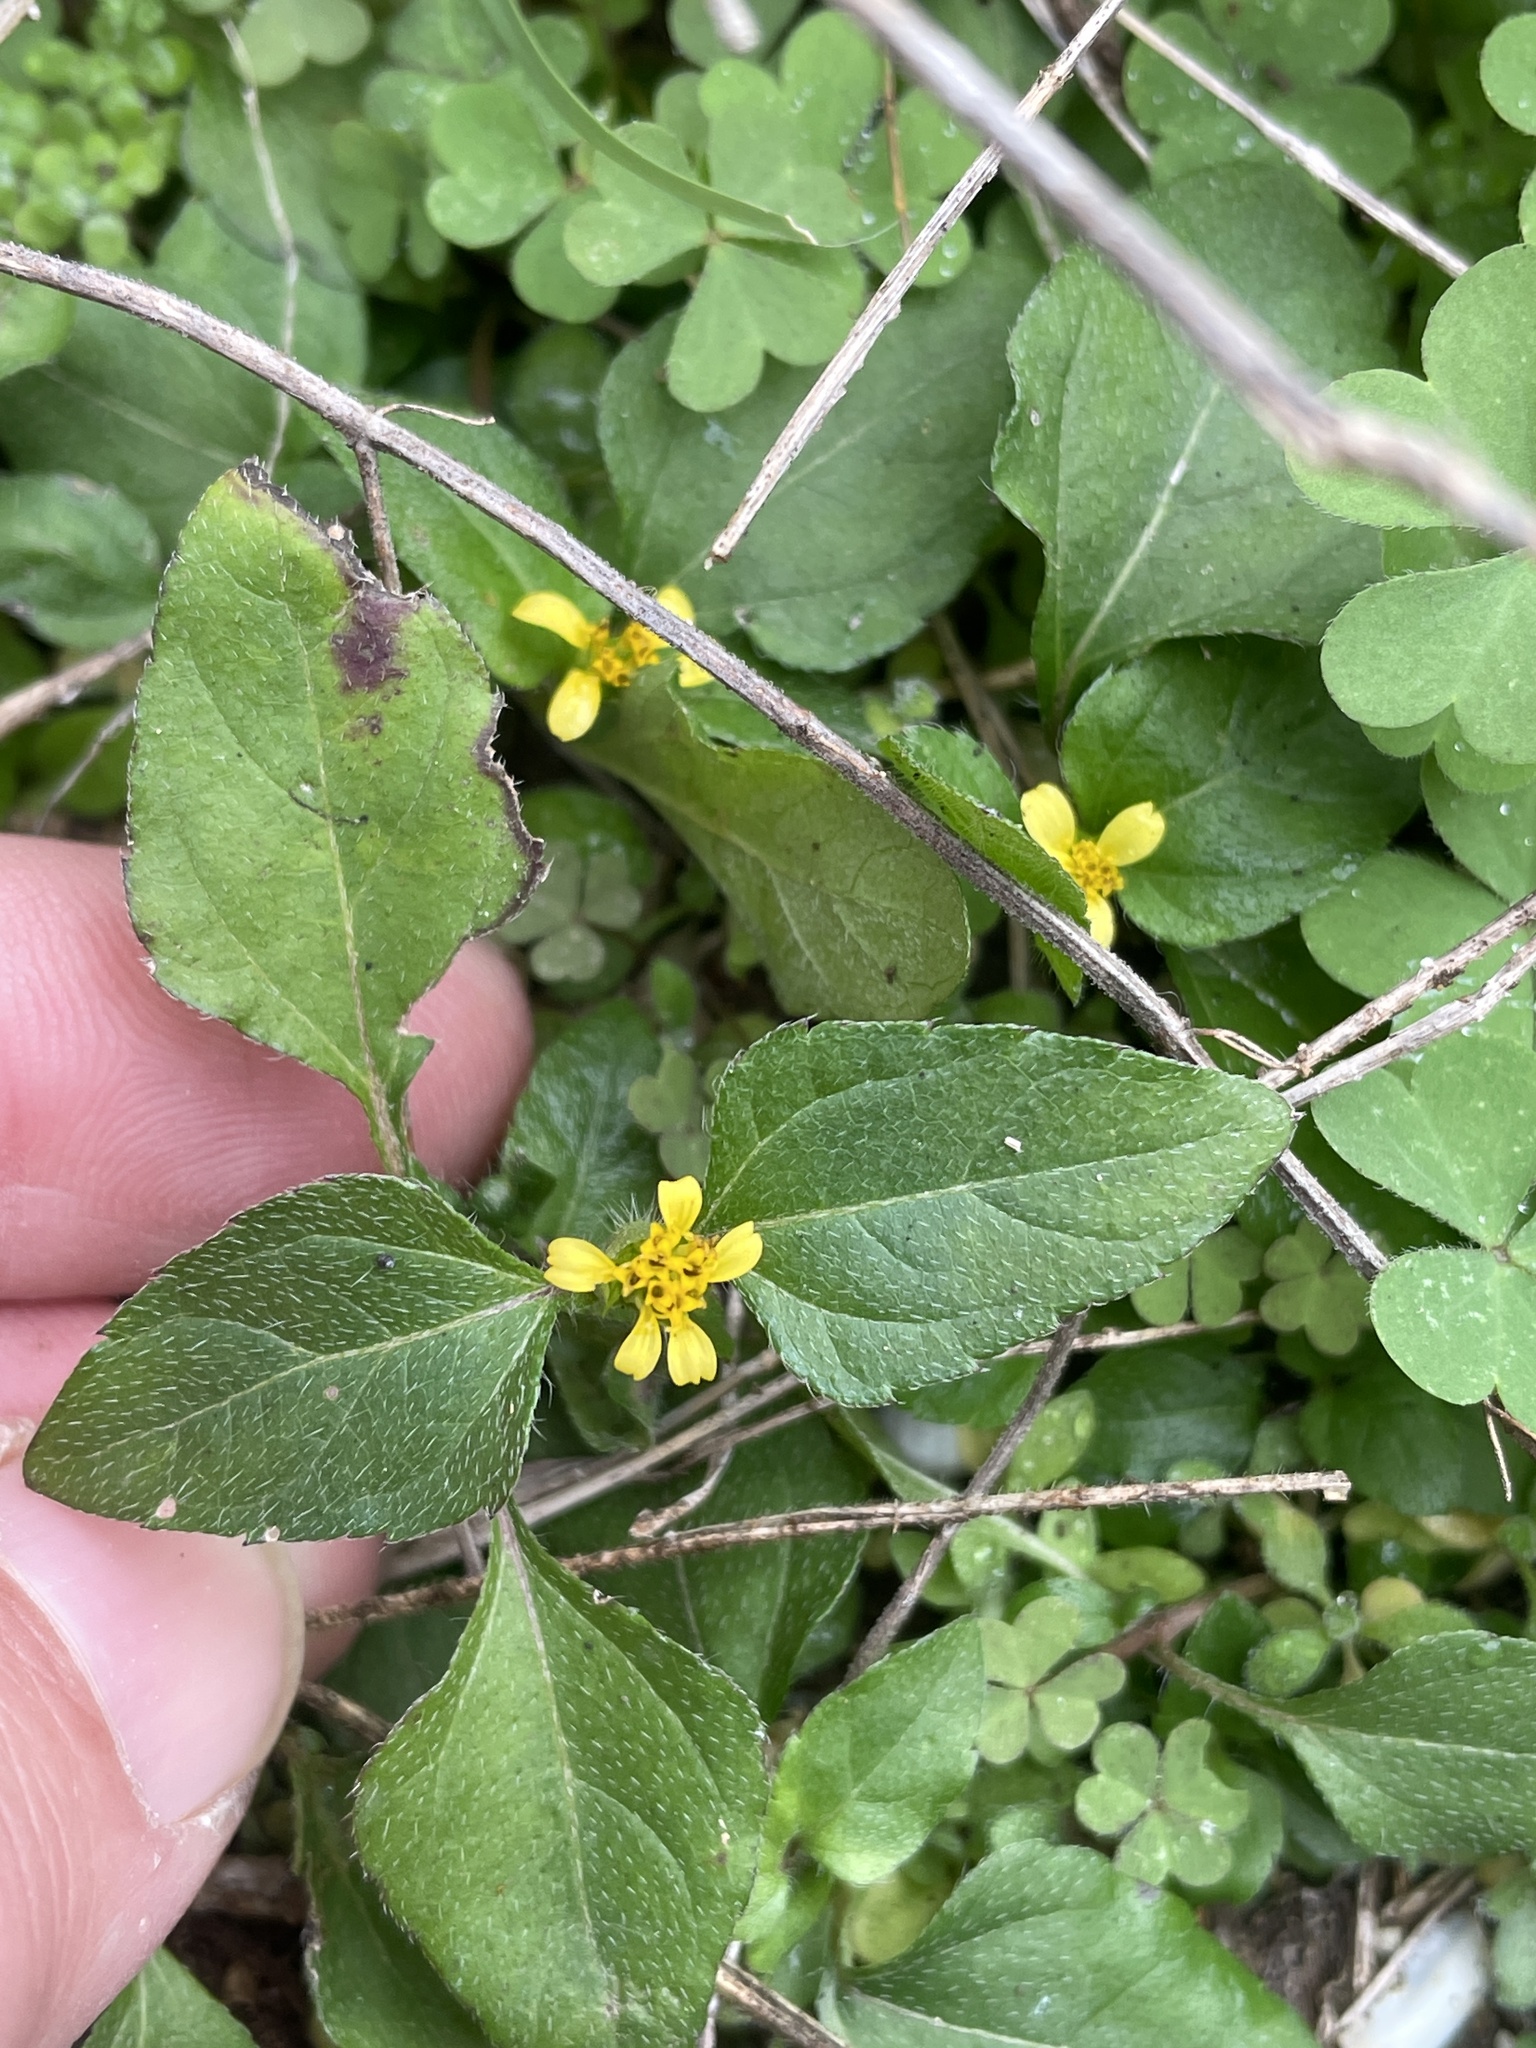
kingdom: Plantae
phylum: Tracheophyta
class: Magnoliopsida
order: Asterales
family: Asteraceae
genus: Calyptocarpus
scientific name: Calyptocarpus vialis
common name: Straggler daisy
